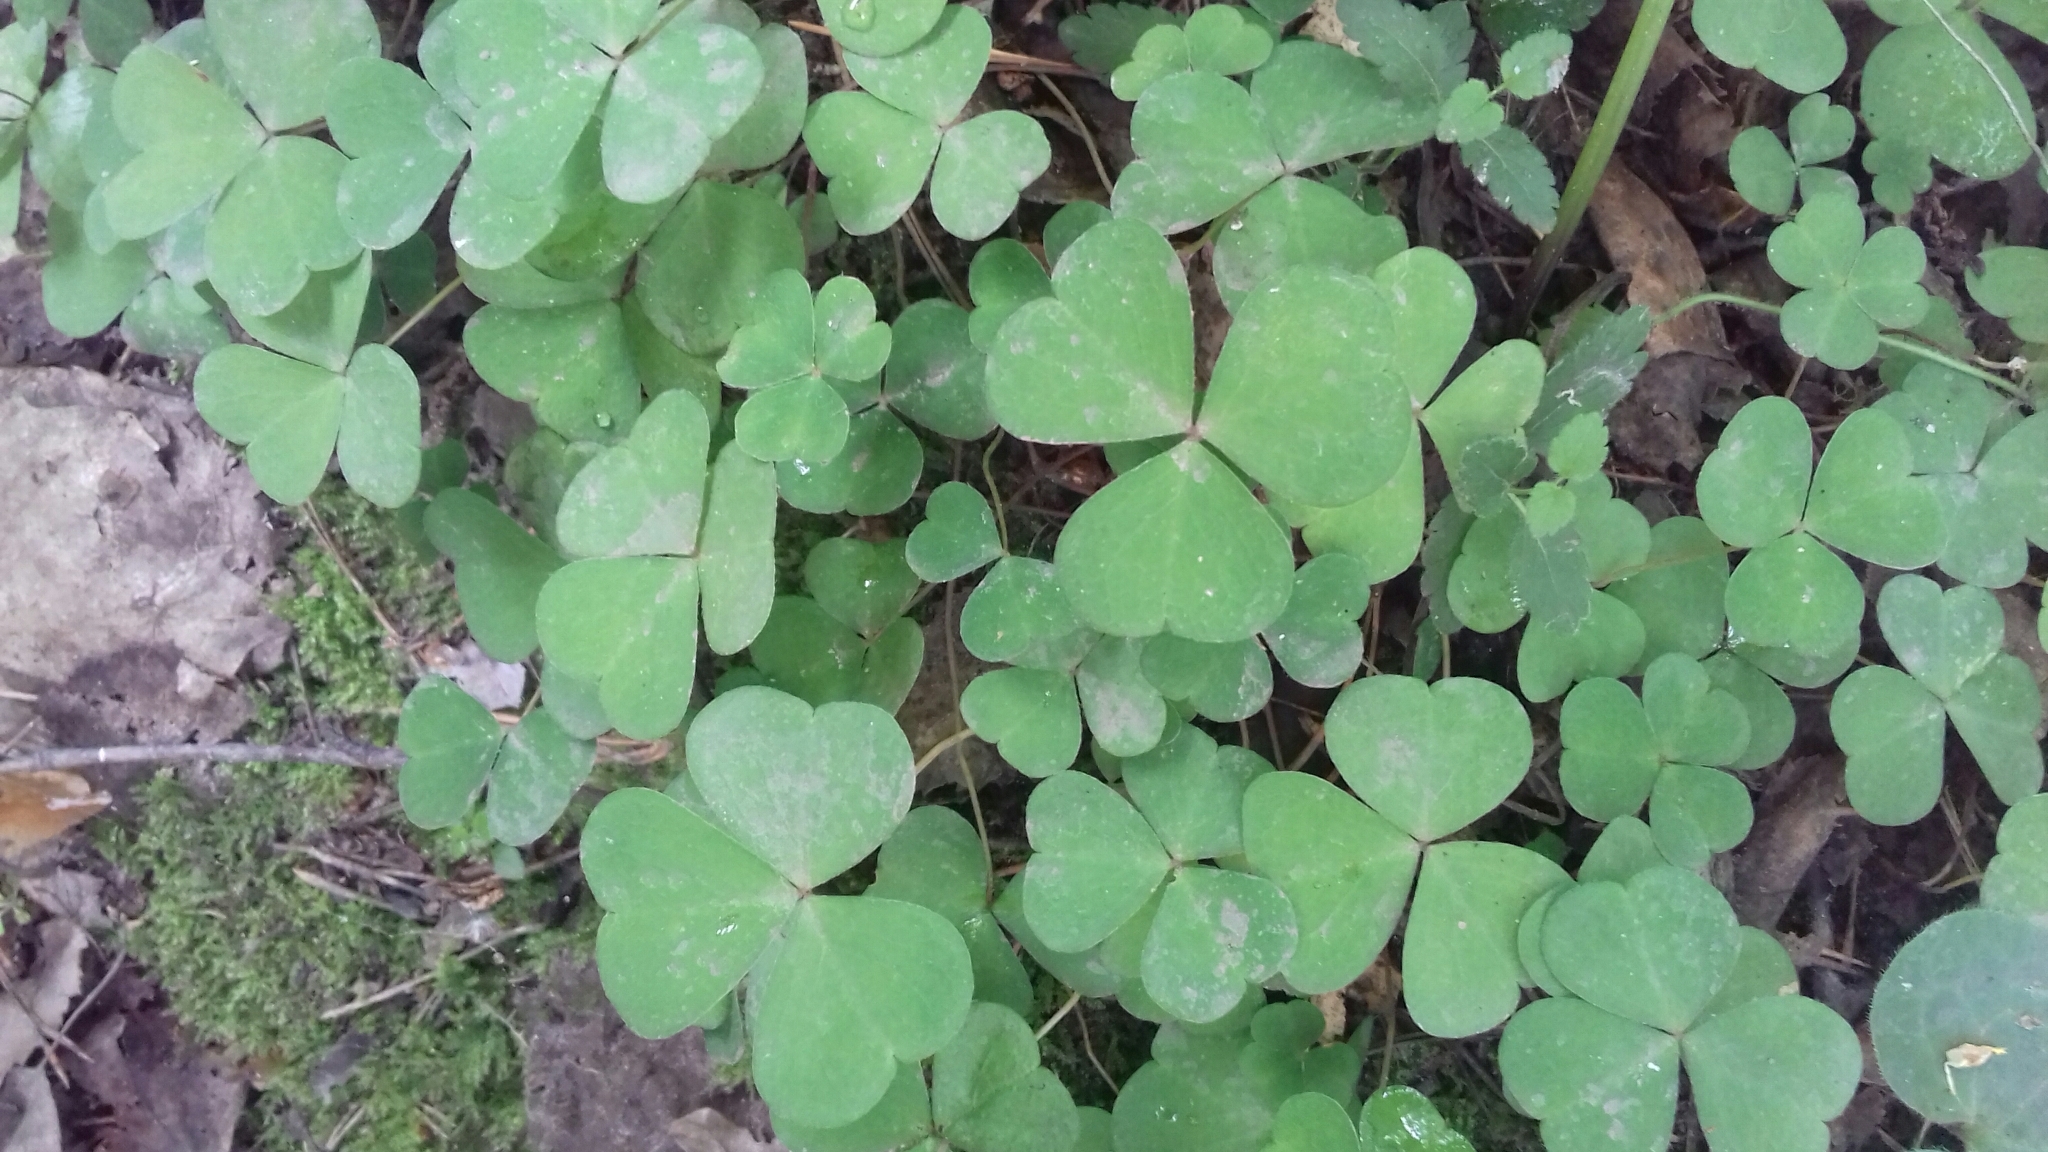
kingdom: Plantae
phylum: Tracheophyta
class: Magnoliopsida
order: Oxalidales
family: Oxalidaceae
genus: Oxalis
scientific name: Oxalis acetosella
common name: Wood-sorrel
